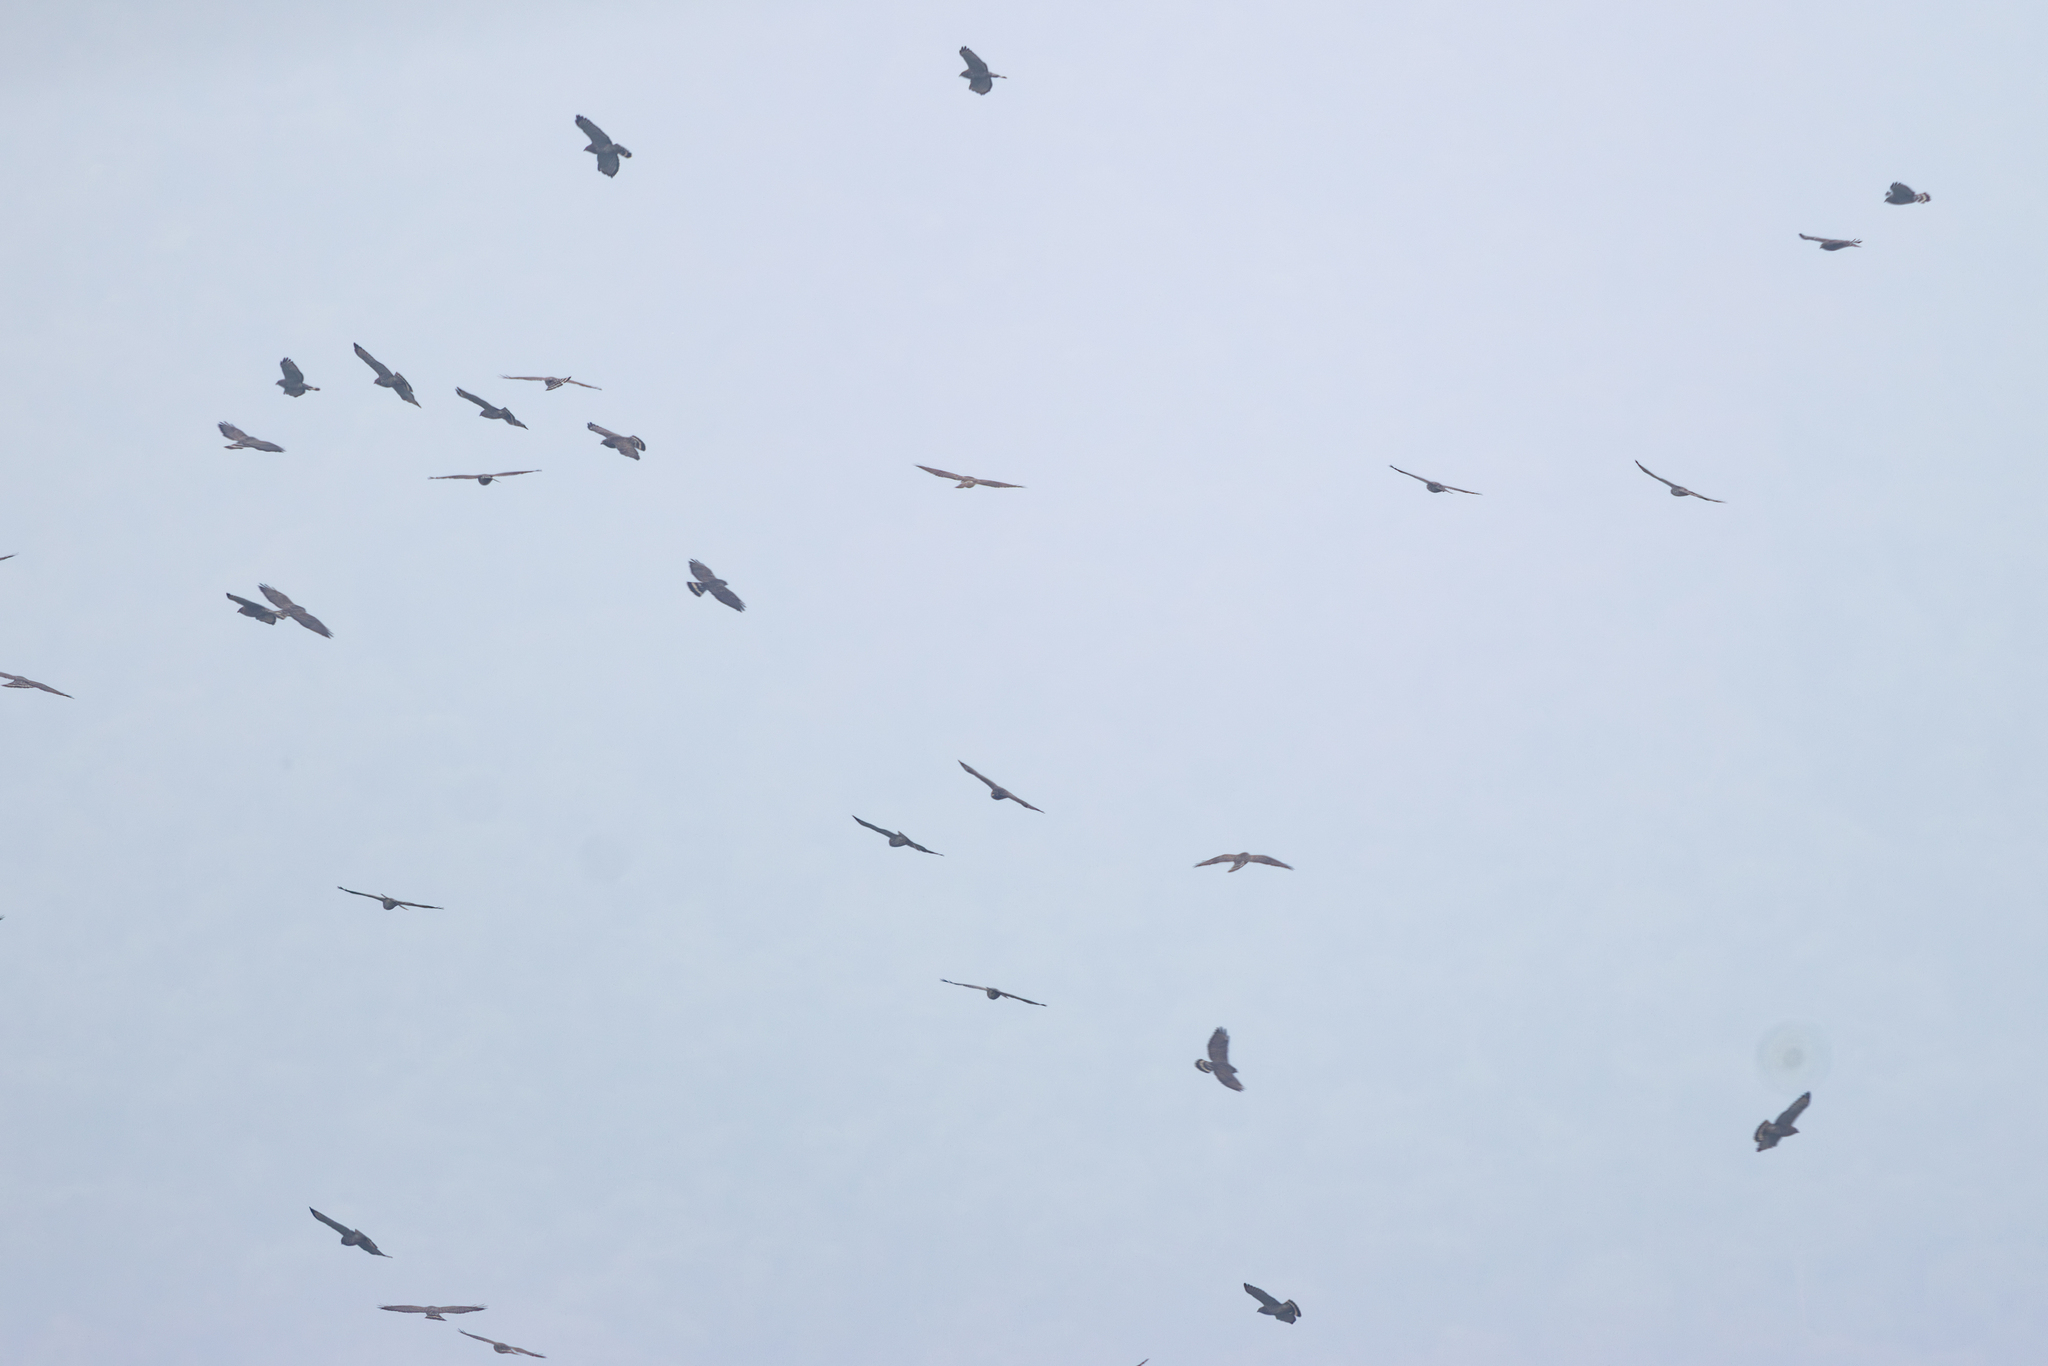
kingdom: Animalia
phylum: Chordata
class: Aves
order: Accipitriformes
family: Accipitridae
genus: Buteo
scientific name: Buteo platypterus
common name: Broad-winged hawk
